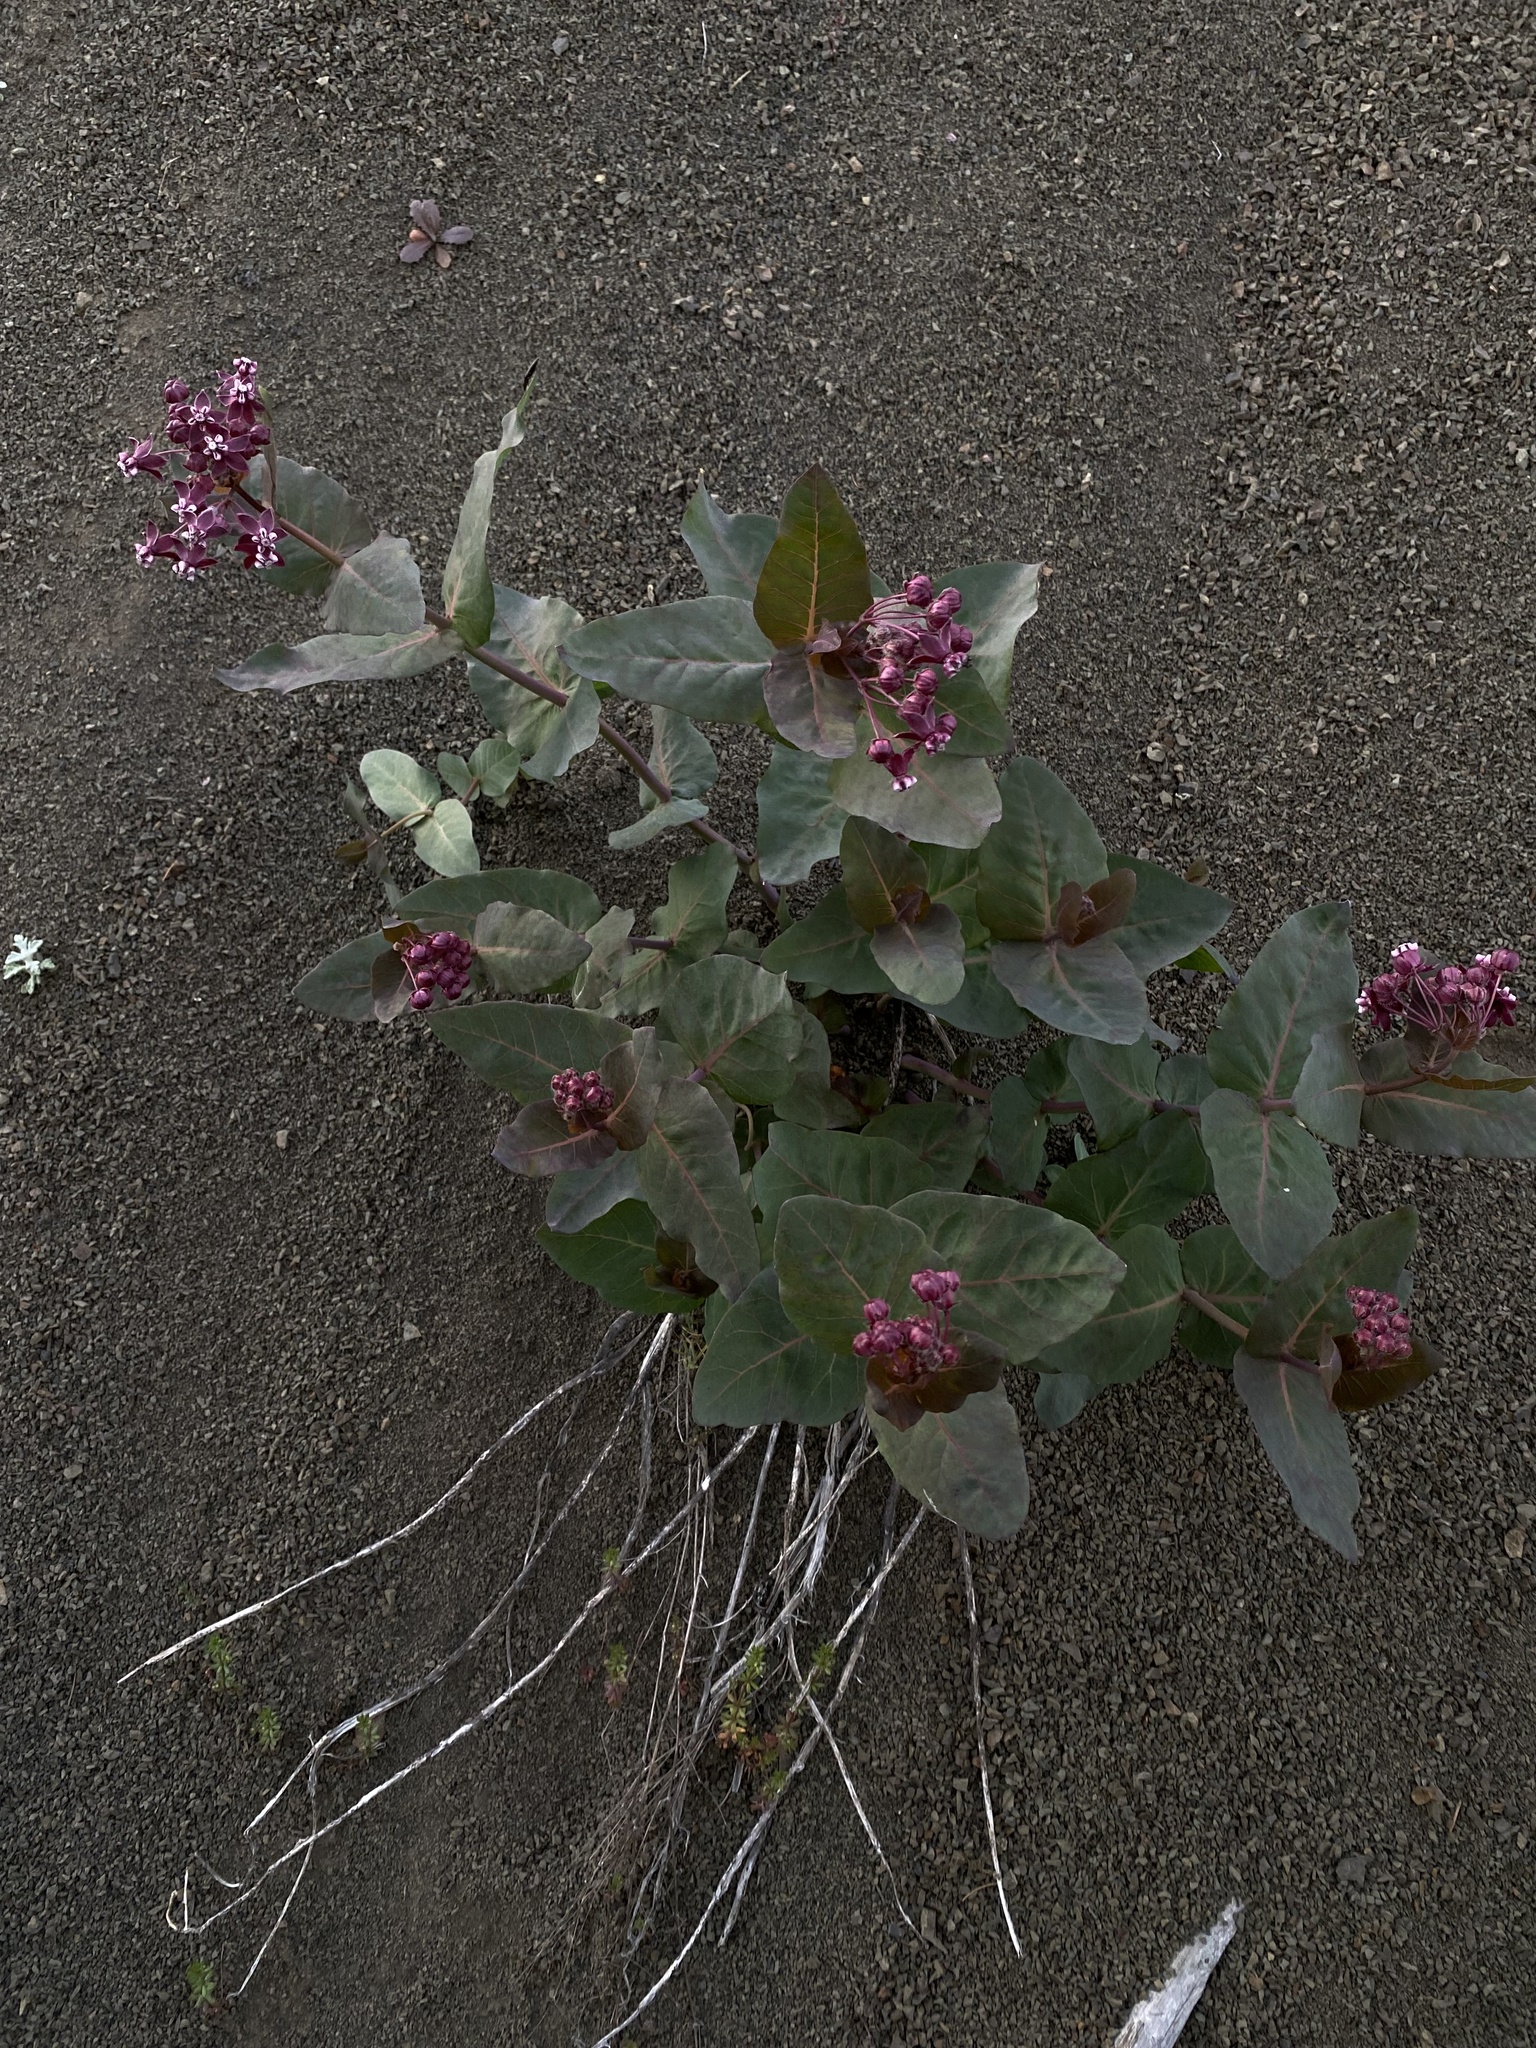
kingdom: Plantae
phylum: Tracheophyta
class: Magnoliopsida
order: Gentianales
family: Apocynaceae
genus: Asclepias
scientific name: Asclepias cordifolia
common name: Purple milkweed
